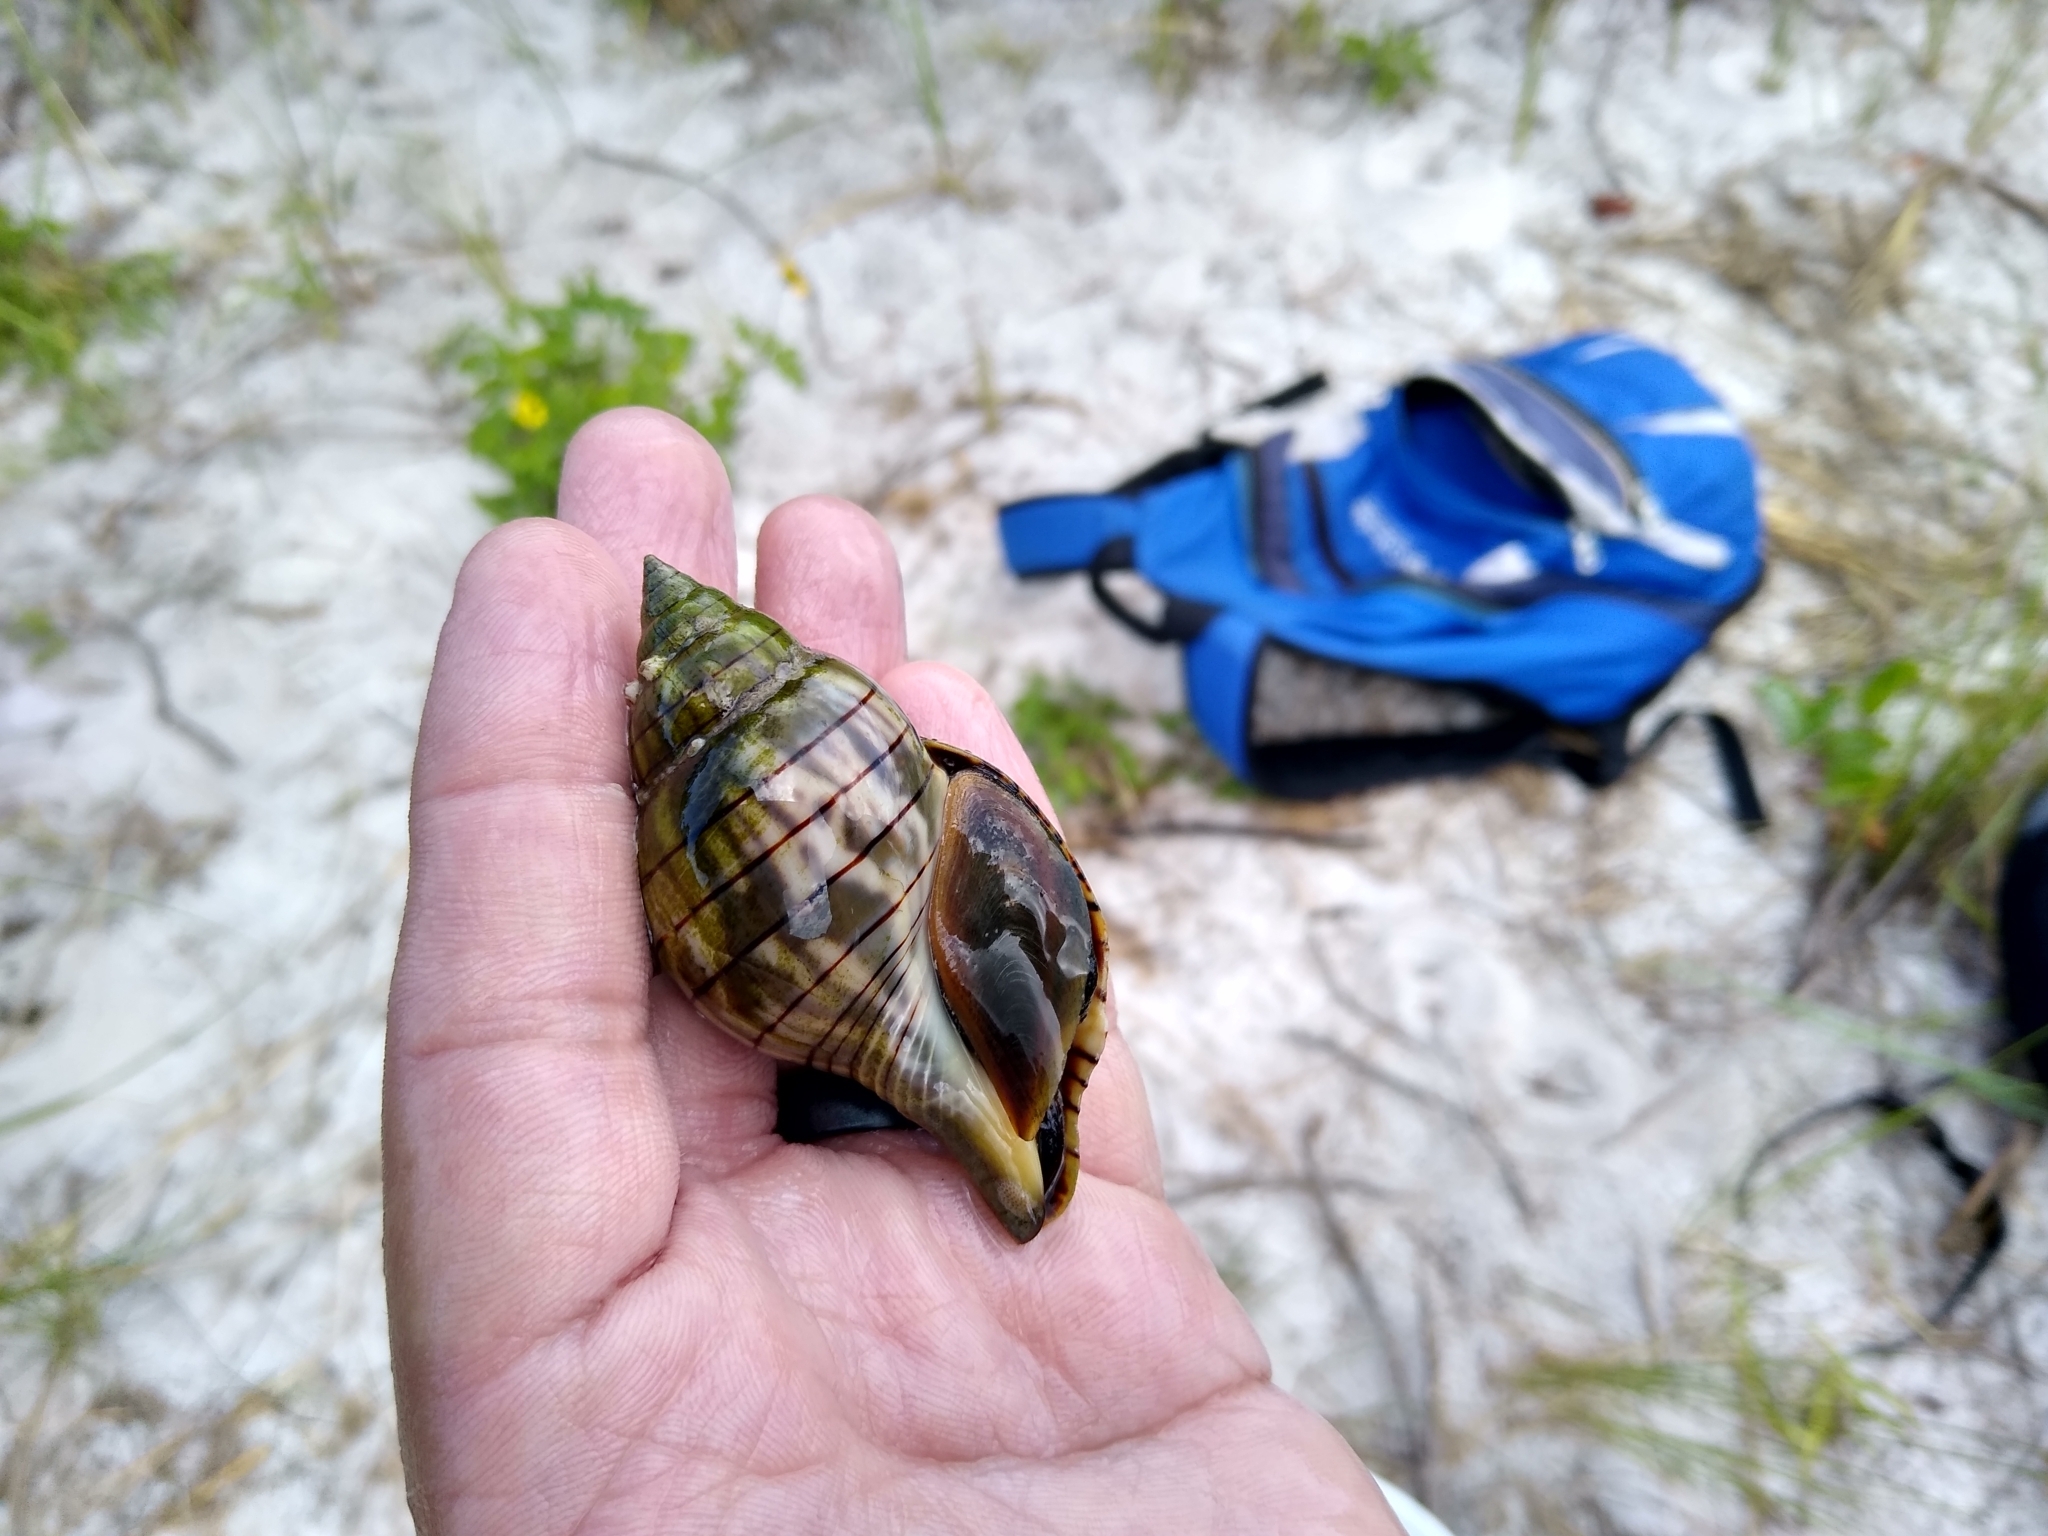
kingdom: Animalia
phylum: Mollusca
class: Gastropoda
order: Neogastropoda
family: Fasciolariidae
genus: Cinctura
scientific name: Cinctura hunteria
